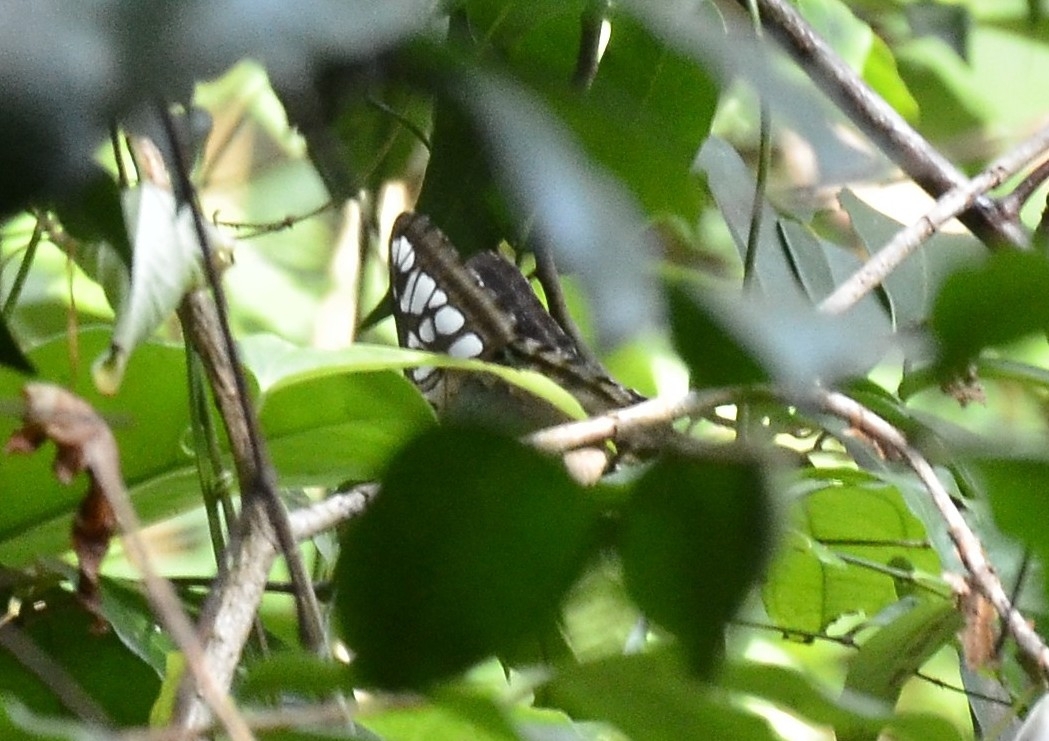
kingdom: Animalia
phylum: Arthropoda
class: Insecta
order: Lepidoptera
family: Nymphalidae
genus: Kallima
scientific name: Kallima sylvia
